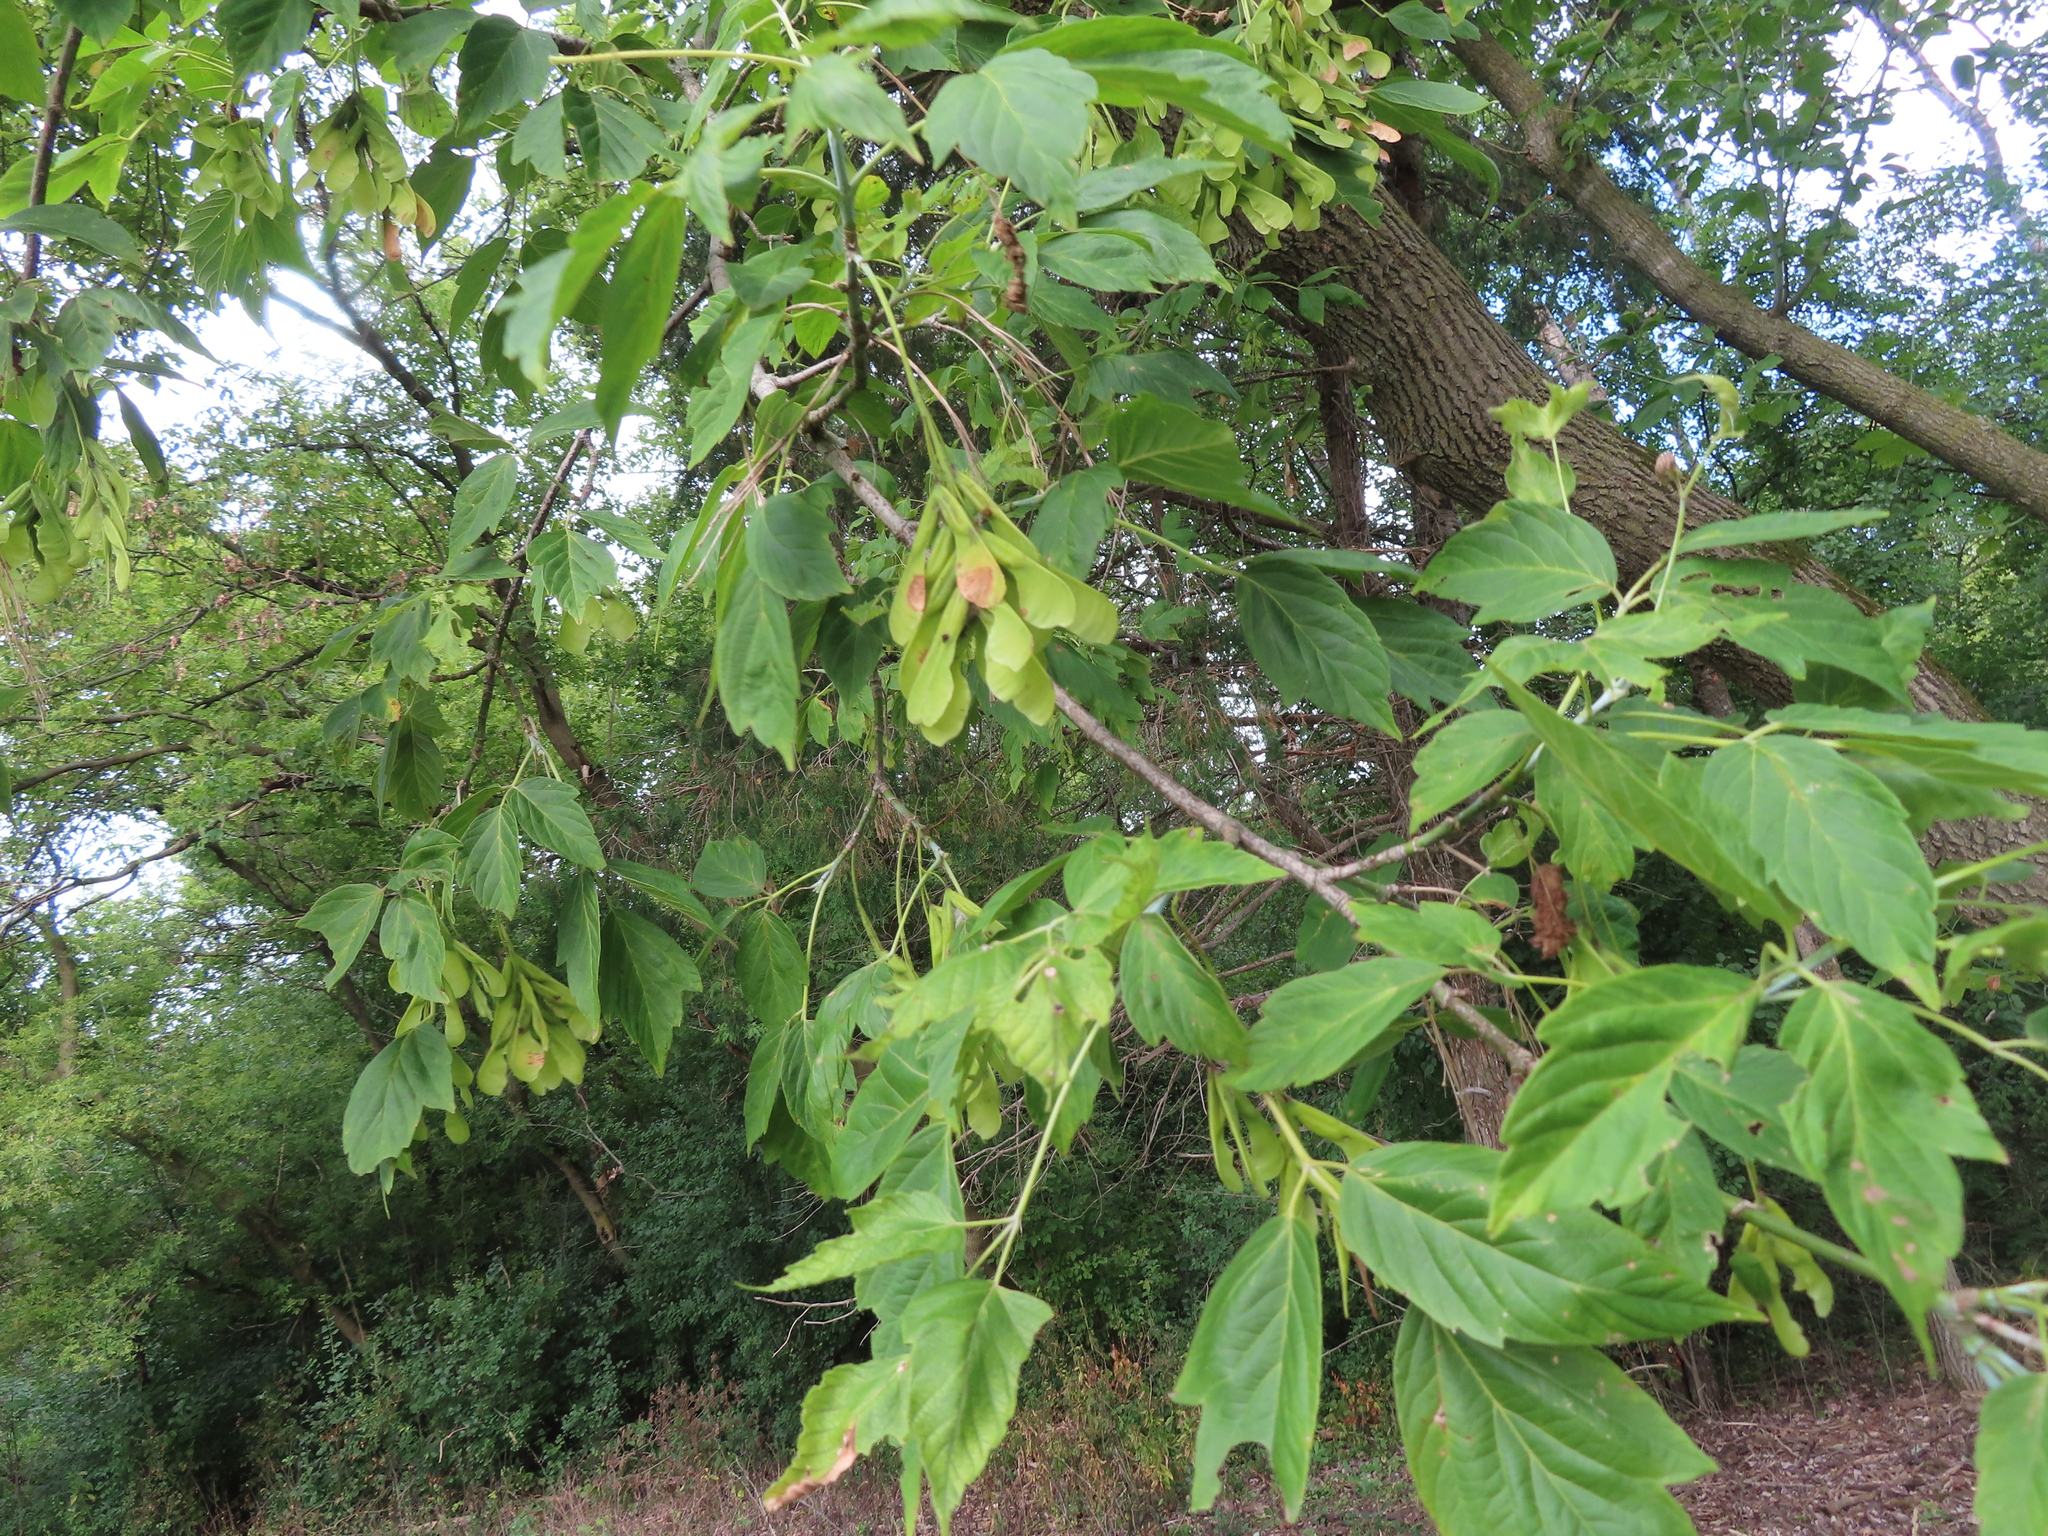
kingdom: Plantae
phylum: Tracheophyta
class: Magnoliopsida
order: Sapindales
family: Sapindaceae
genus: Acer
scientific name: Acer negundo
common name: Ashleaf maple
